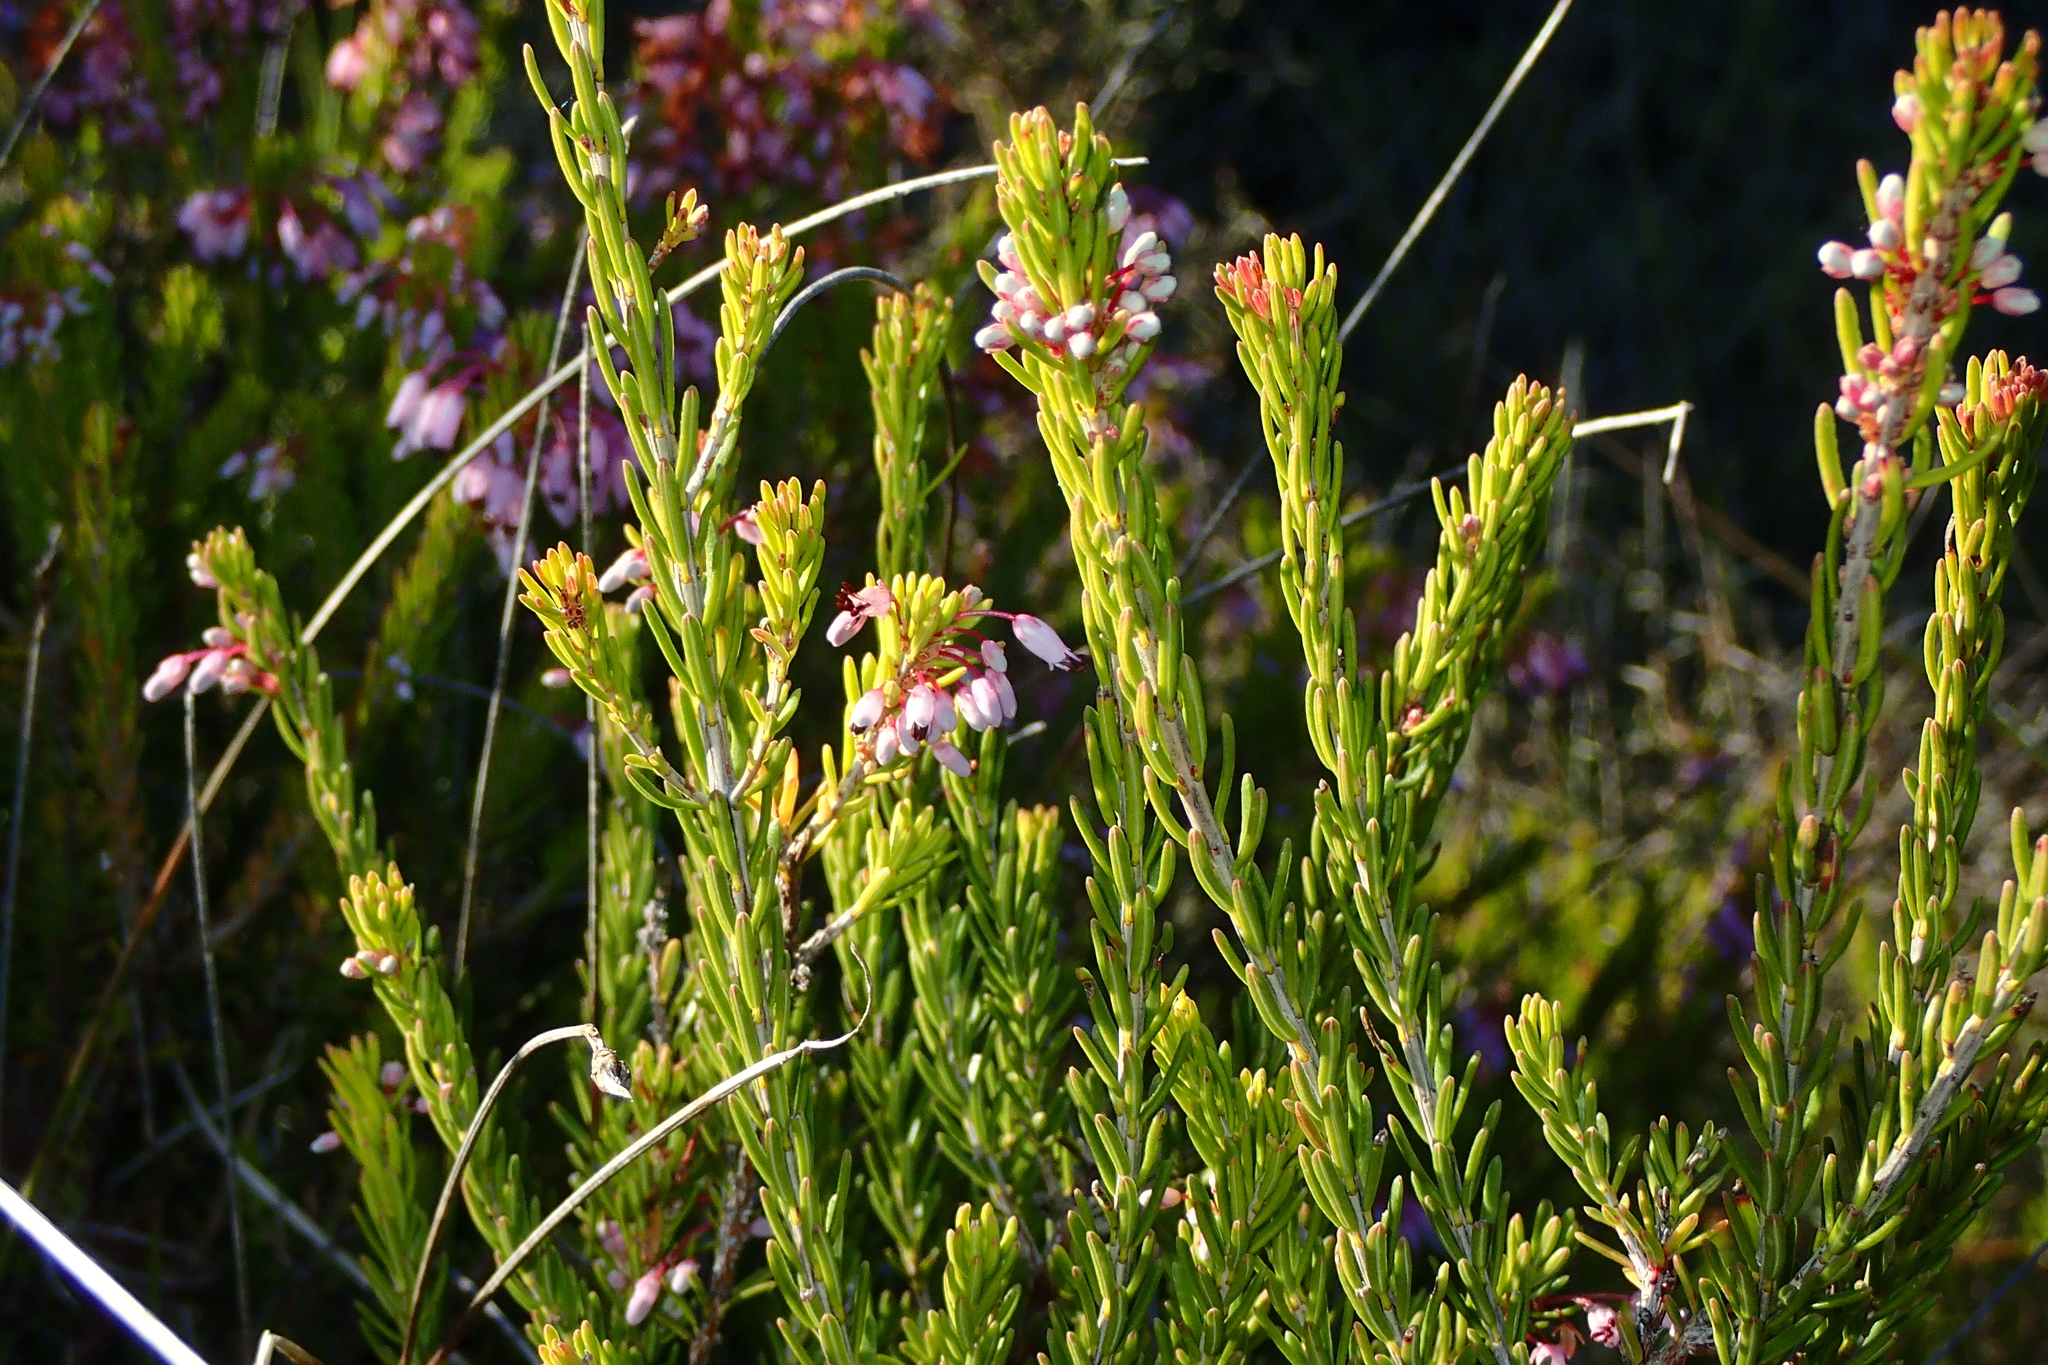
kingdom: Plantae
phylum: Tracheophyta
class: Magnoliopsida
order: Ericales
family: Ericaceae
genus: Erica
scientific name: Erica multiflora
